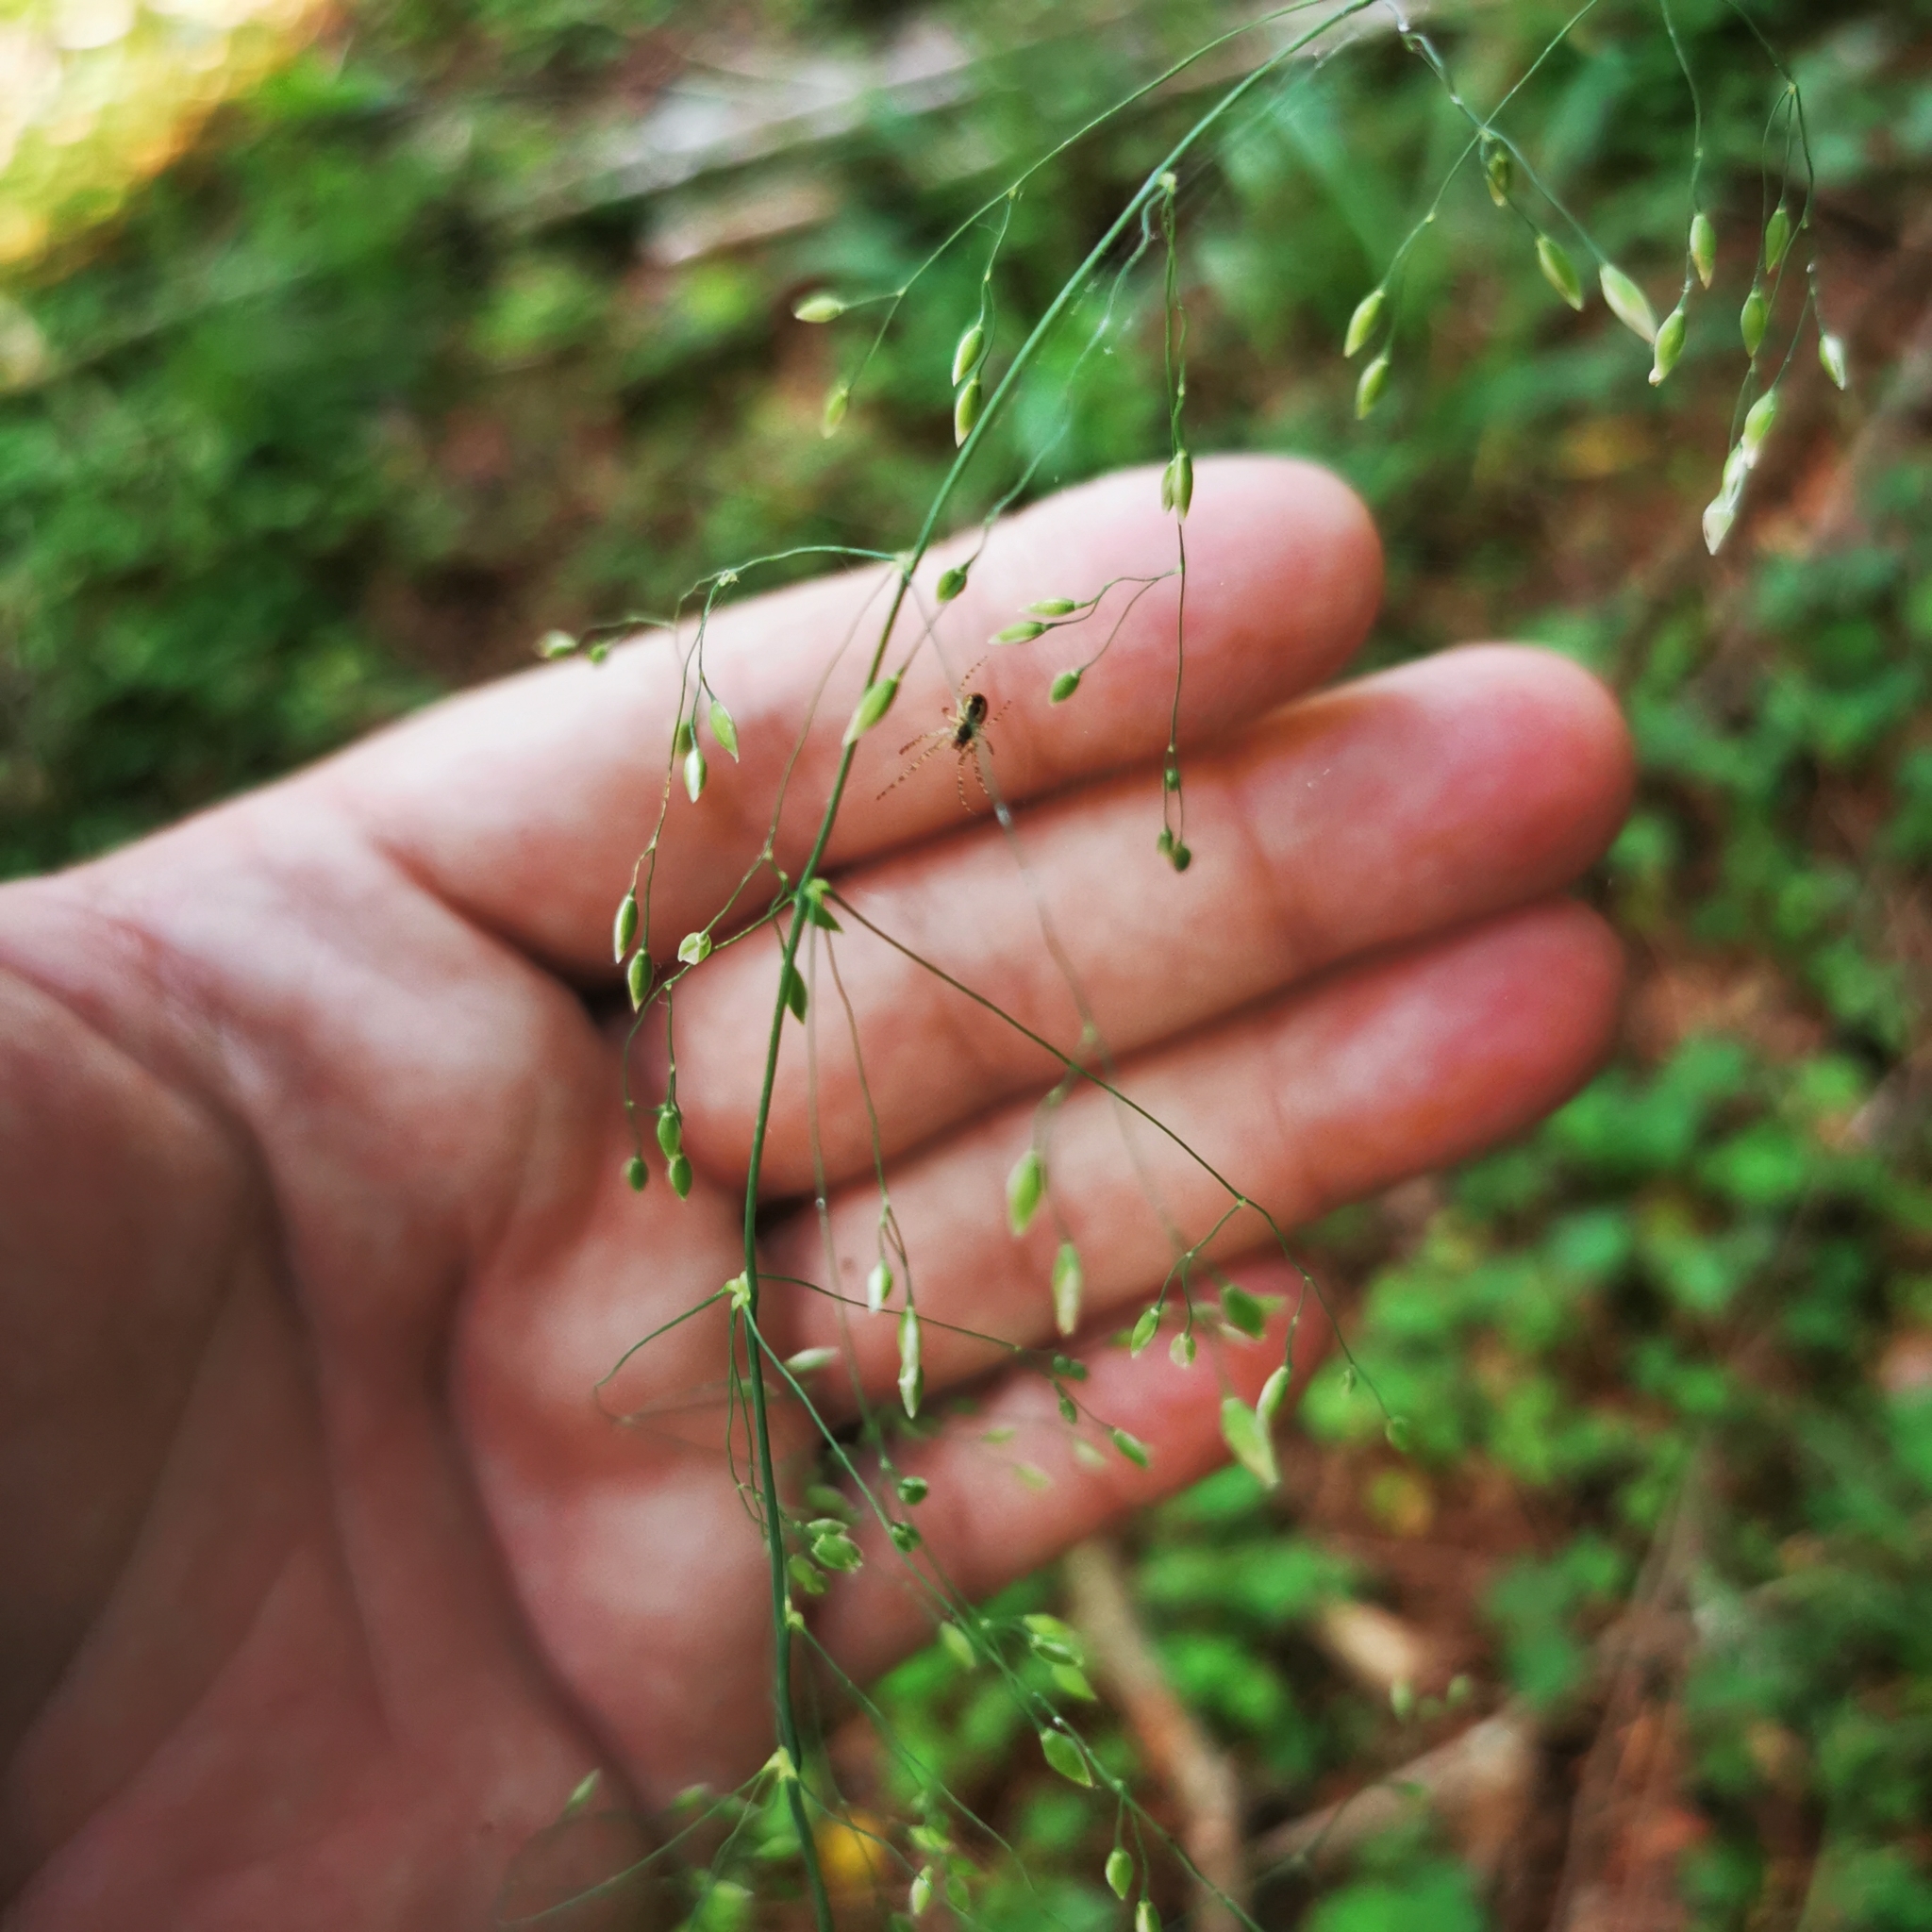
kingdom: Plantae
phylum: Tracheophyta
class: Liliopsida
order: Poales
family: Poaceae
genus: Milium
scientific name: Milium effusum
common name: Wood millet
